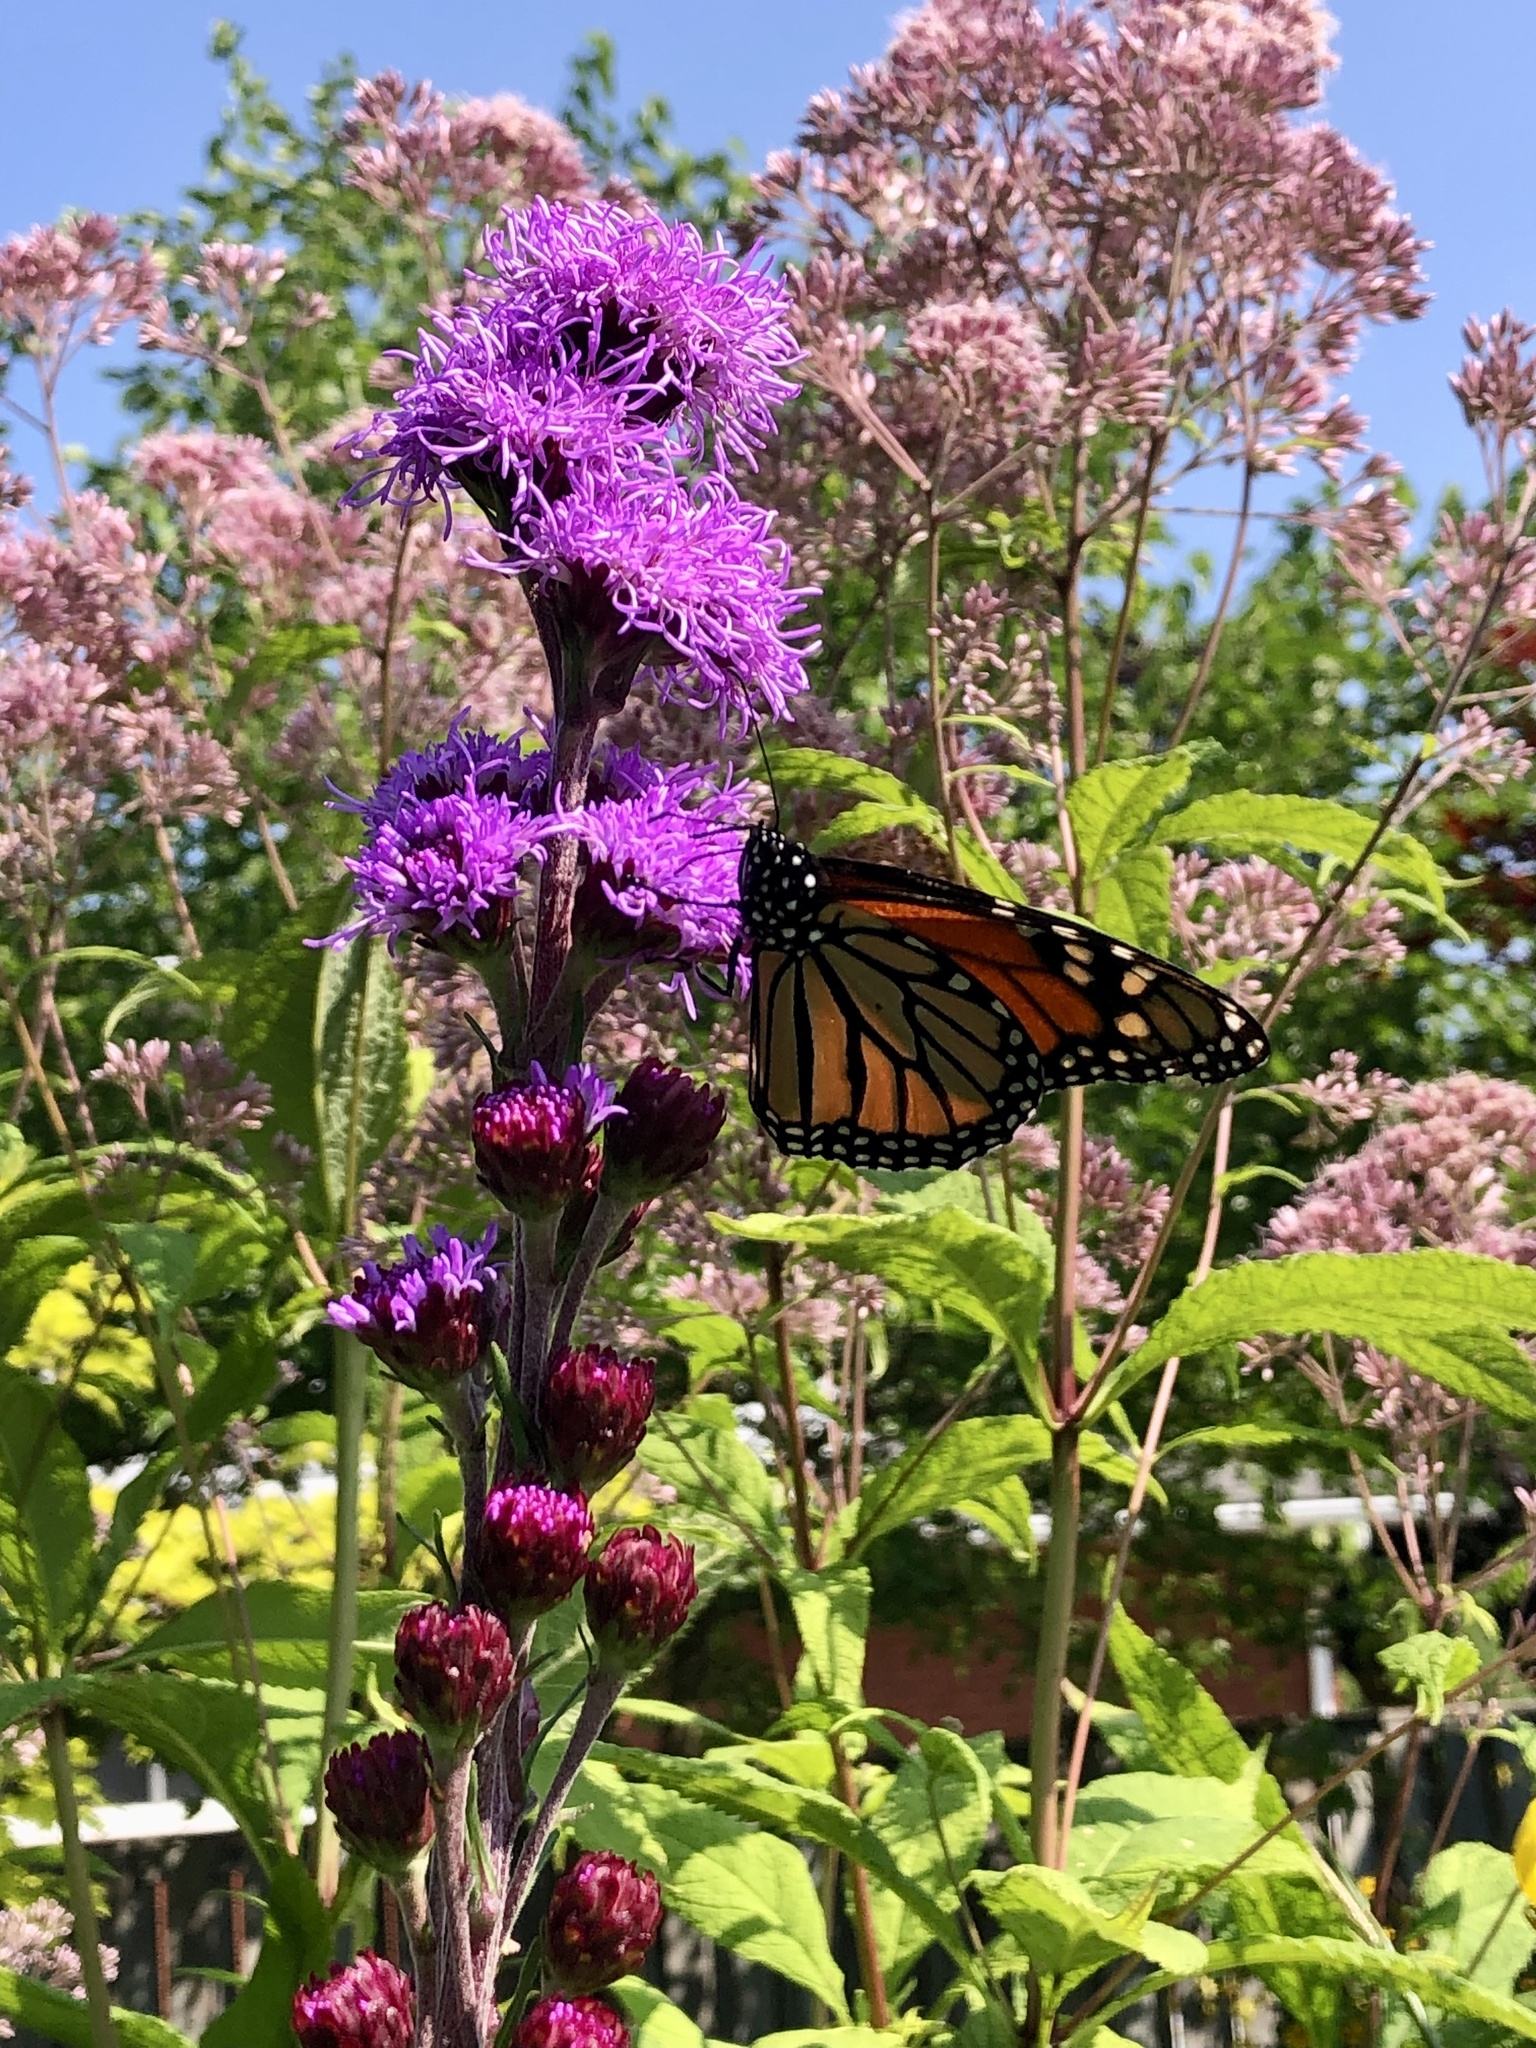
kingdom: Animalia
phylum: Arthropoda
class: Insecta
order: Lepidoptera
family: Nymphalidae
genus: Danaus
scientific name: Danaus plexippus
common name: Monarch
